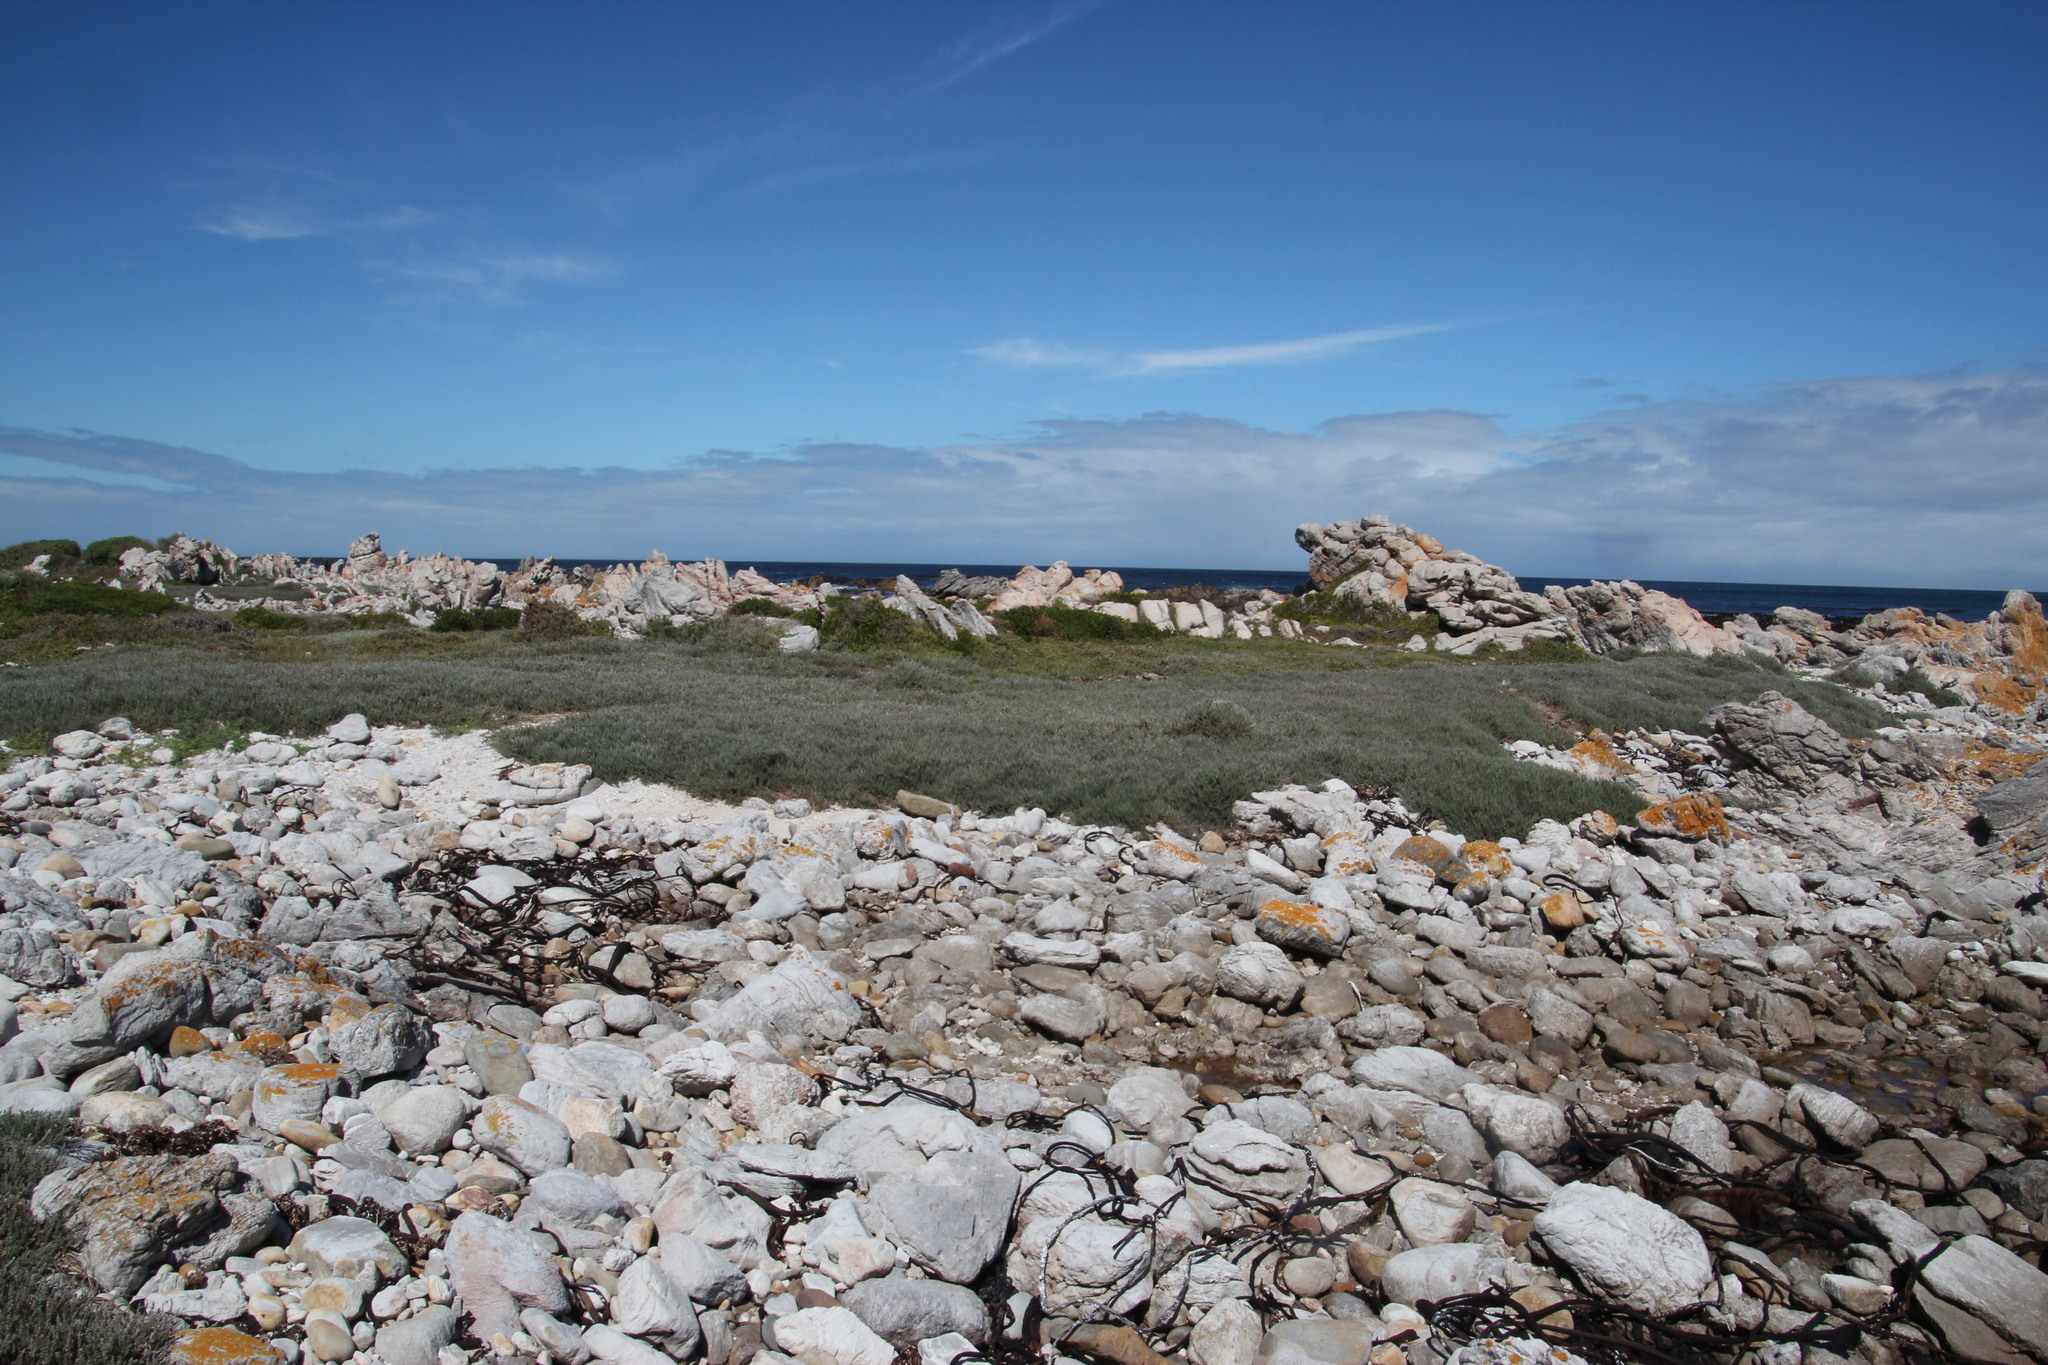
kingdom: Plantae
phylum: Tracheophyta
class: Magnoliopsida
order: Caryophyllales
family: Amaranthaceae
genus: Chenolea
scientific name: Chenolea diffusa
